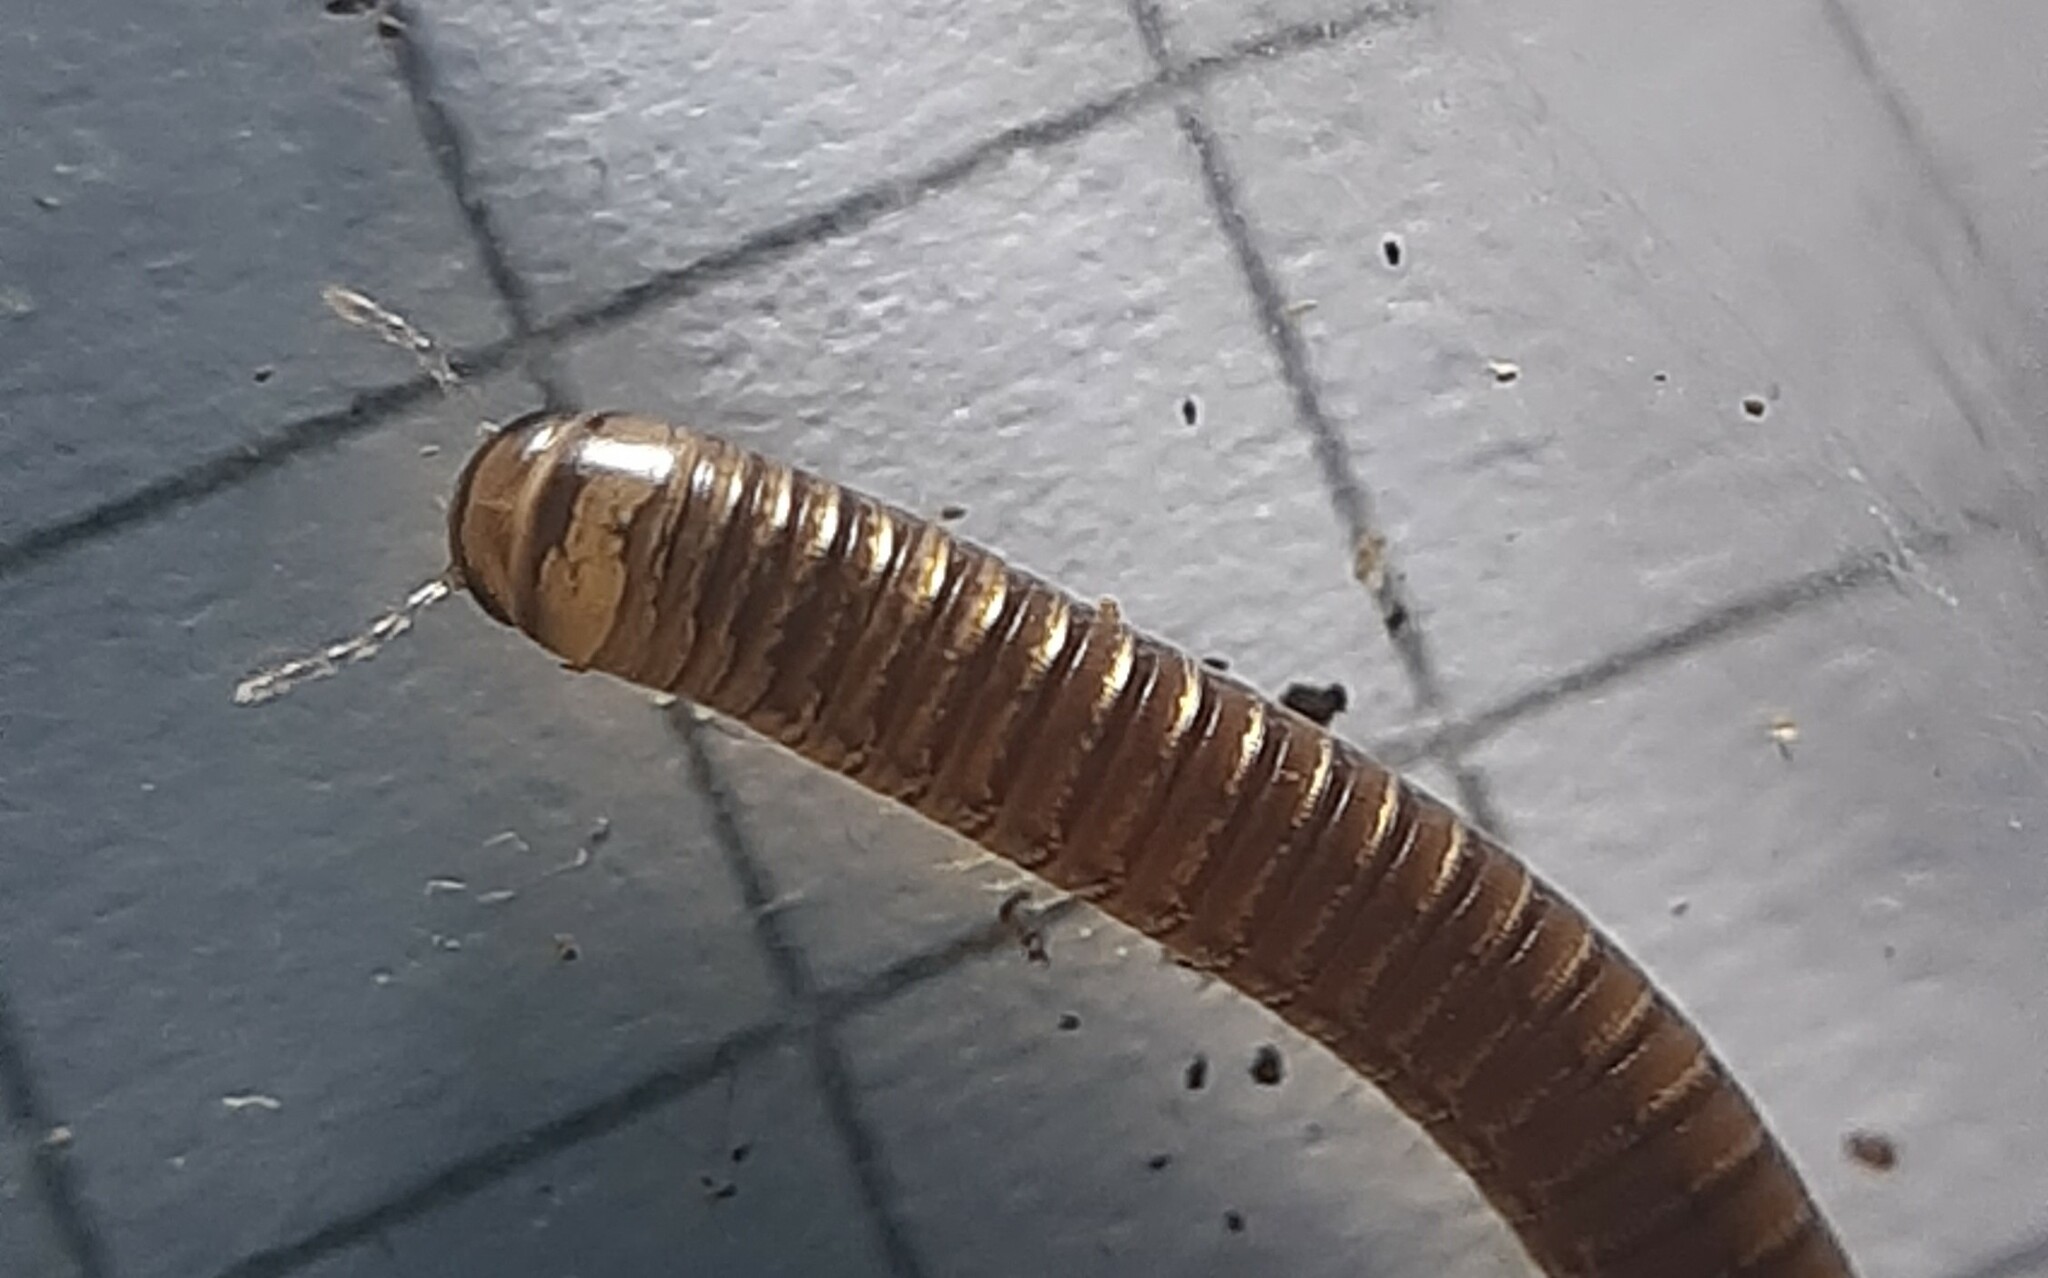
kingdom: Animalia
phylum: Arthropoda
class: Diplopoda
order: Julida
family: Julidae
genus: Cylindroiulus
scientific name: Cylindroiulus latzeli
